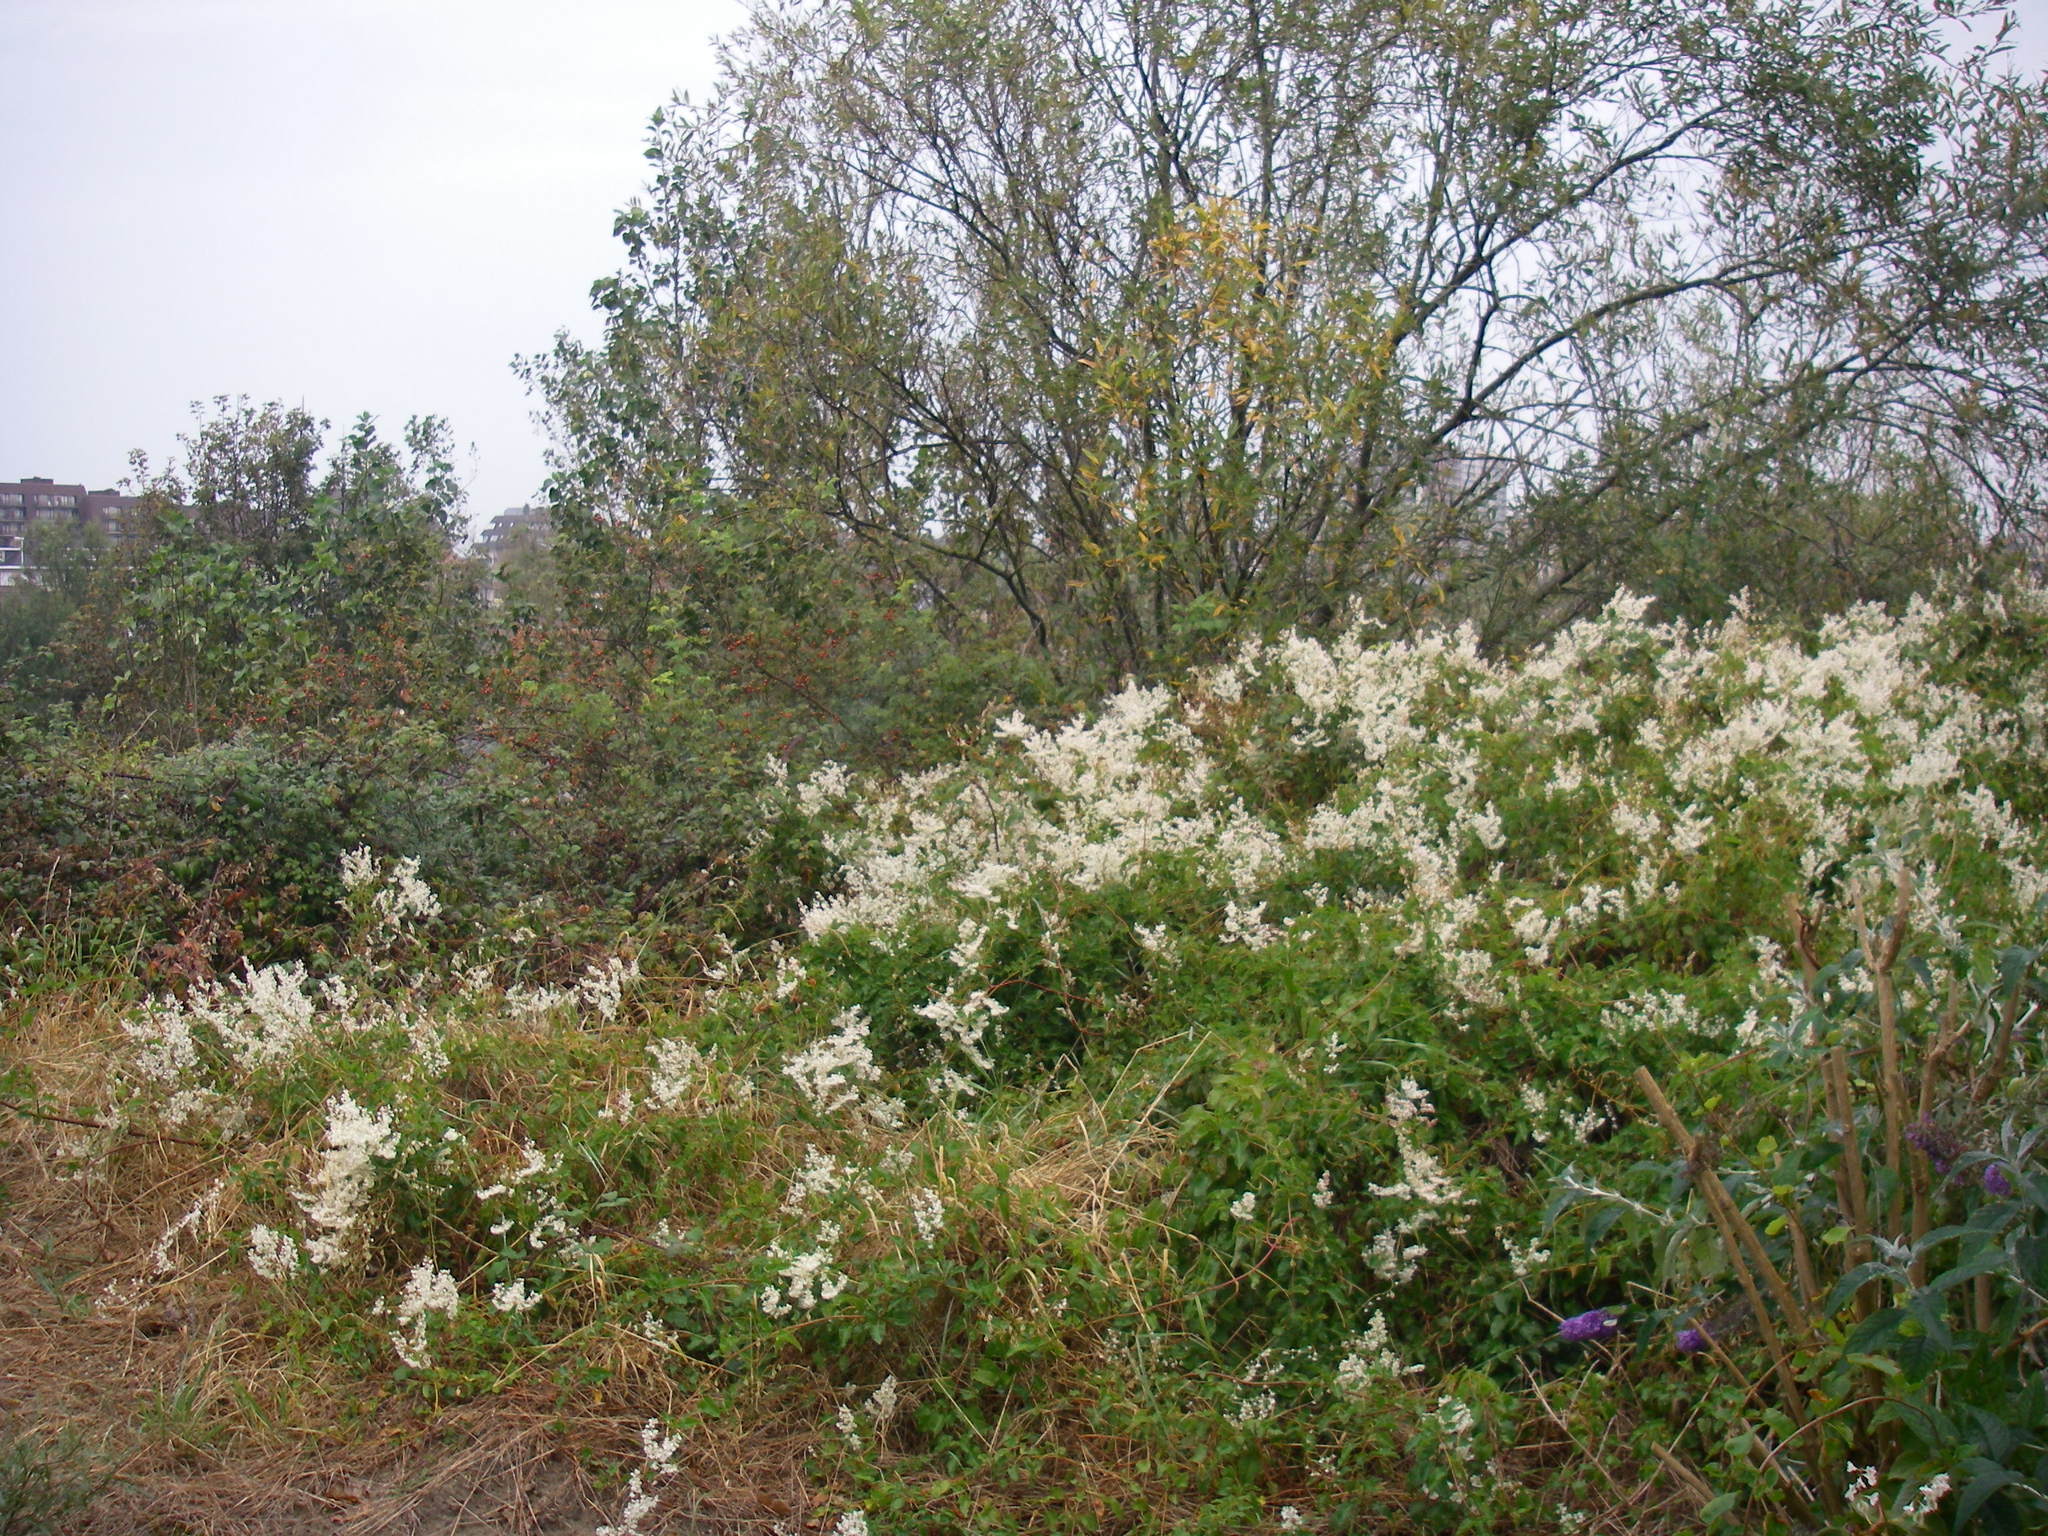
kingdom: Plantae
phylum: Tracheophyta
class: Magnoliopsida
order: Caryophyllales
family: Polygonaceae
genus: Fallopia
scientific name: Fallopia baldschuanica
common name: Russian-vine
